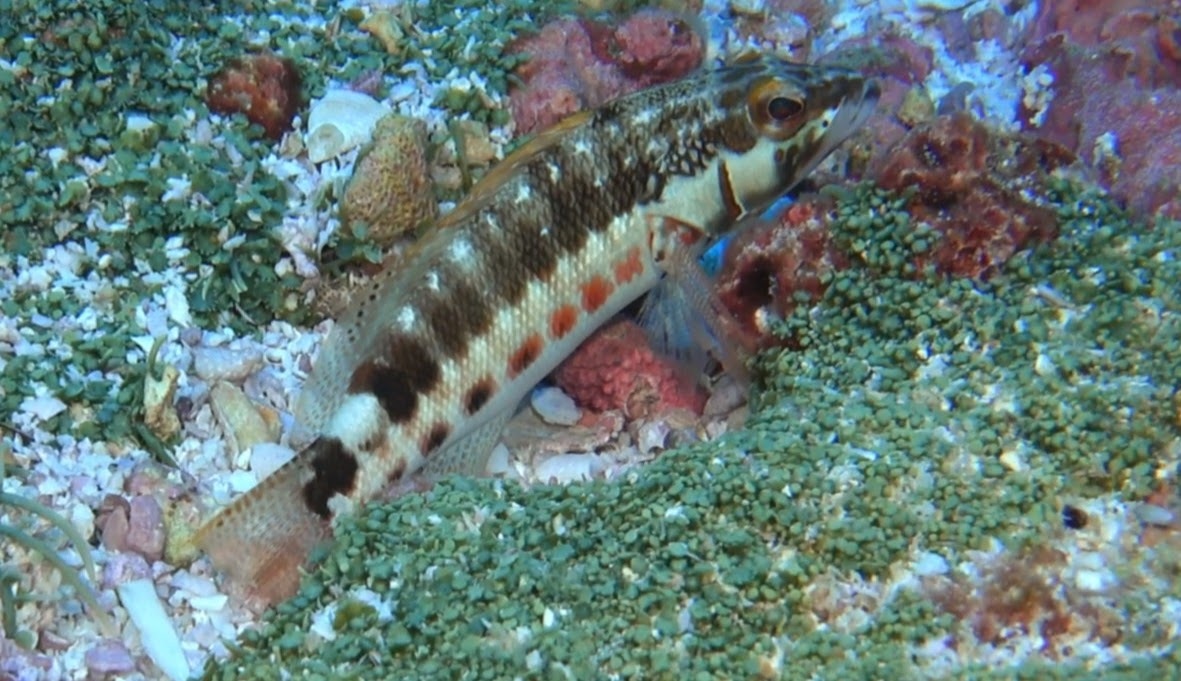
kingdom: Animalia
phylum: Chordata
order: Perciformes
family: Serranidae
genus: Serranus
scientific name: Serranus psittacinus
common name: Barred serrano
